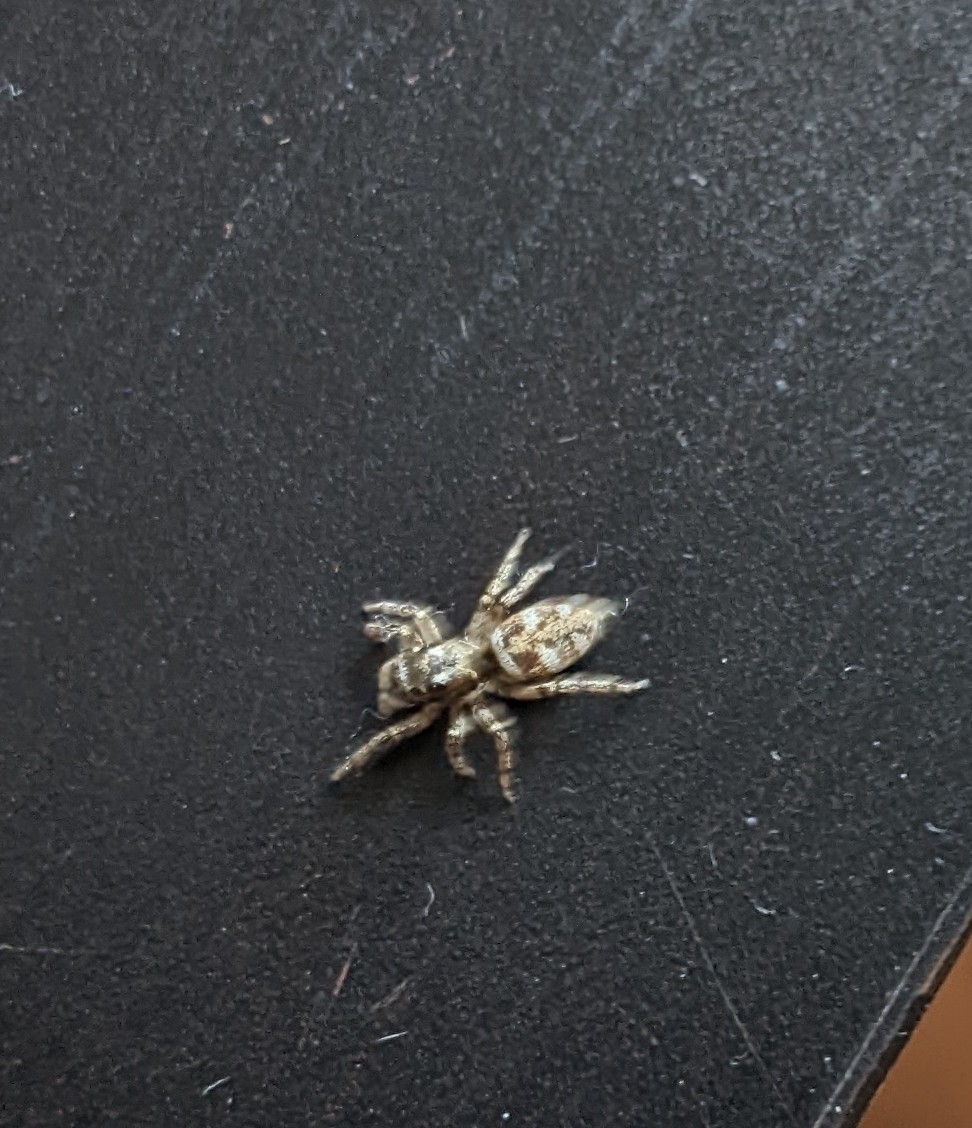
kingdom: Animalia
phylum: Arthropoda
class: Arachnida
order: Araneae
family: Salticidae
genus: Salticus
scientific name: Salticus scenicus
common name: Zebra jumper
